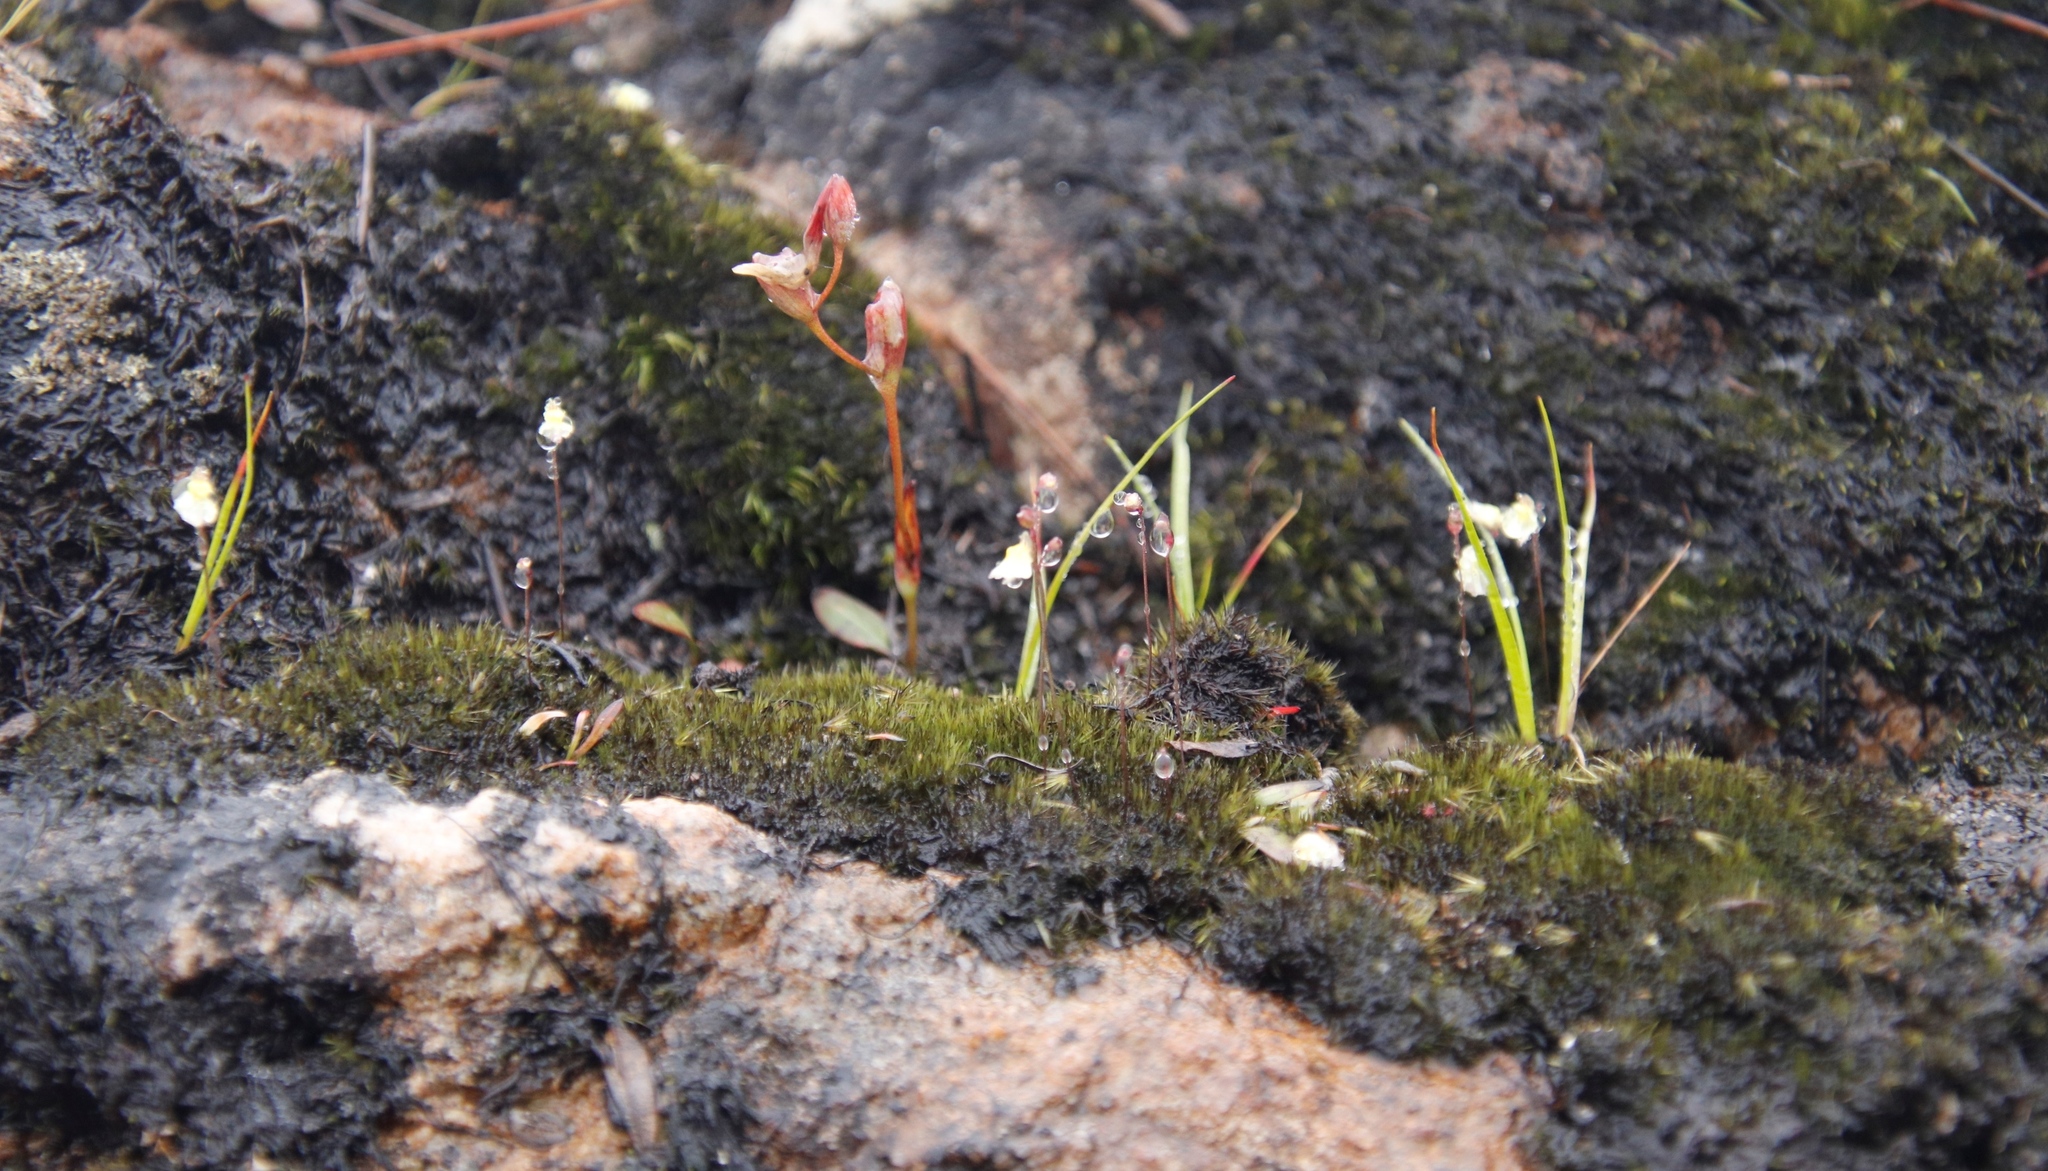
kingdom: Plantae
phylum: Tracheophyta
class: Liliopsida
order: Asparagales
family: Iridaceae
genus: Geissorhiza
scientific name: Geissorhiza bolusii
